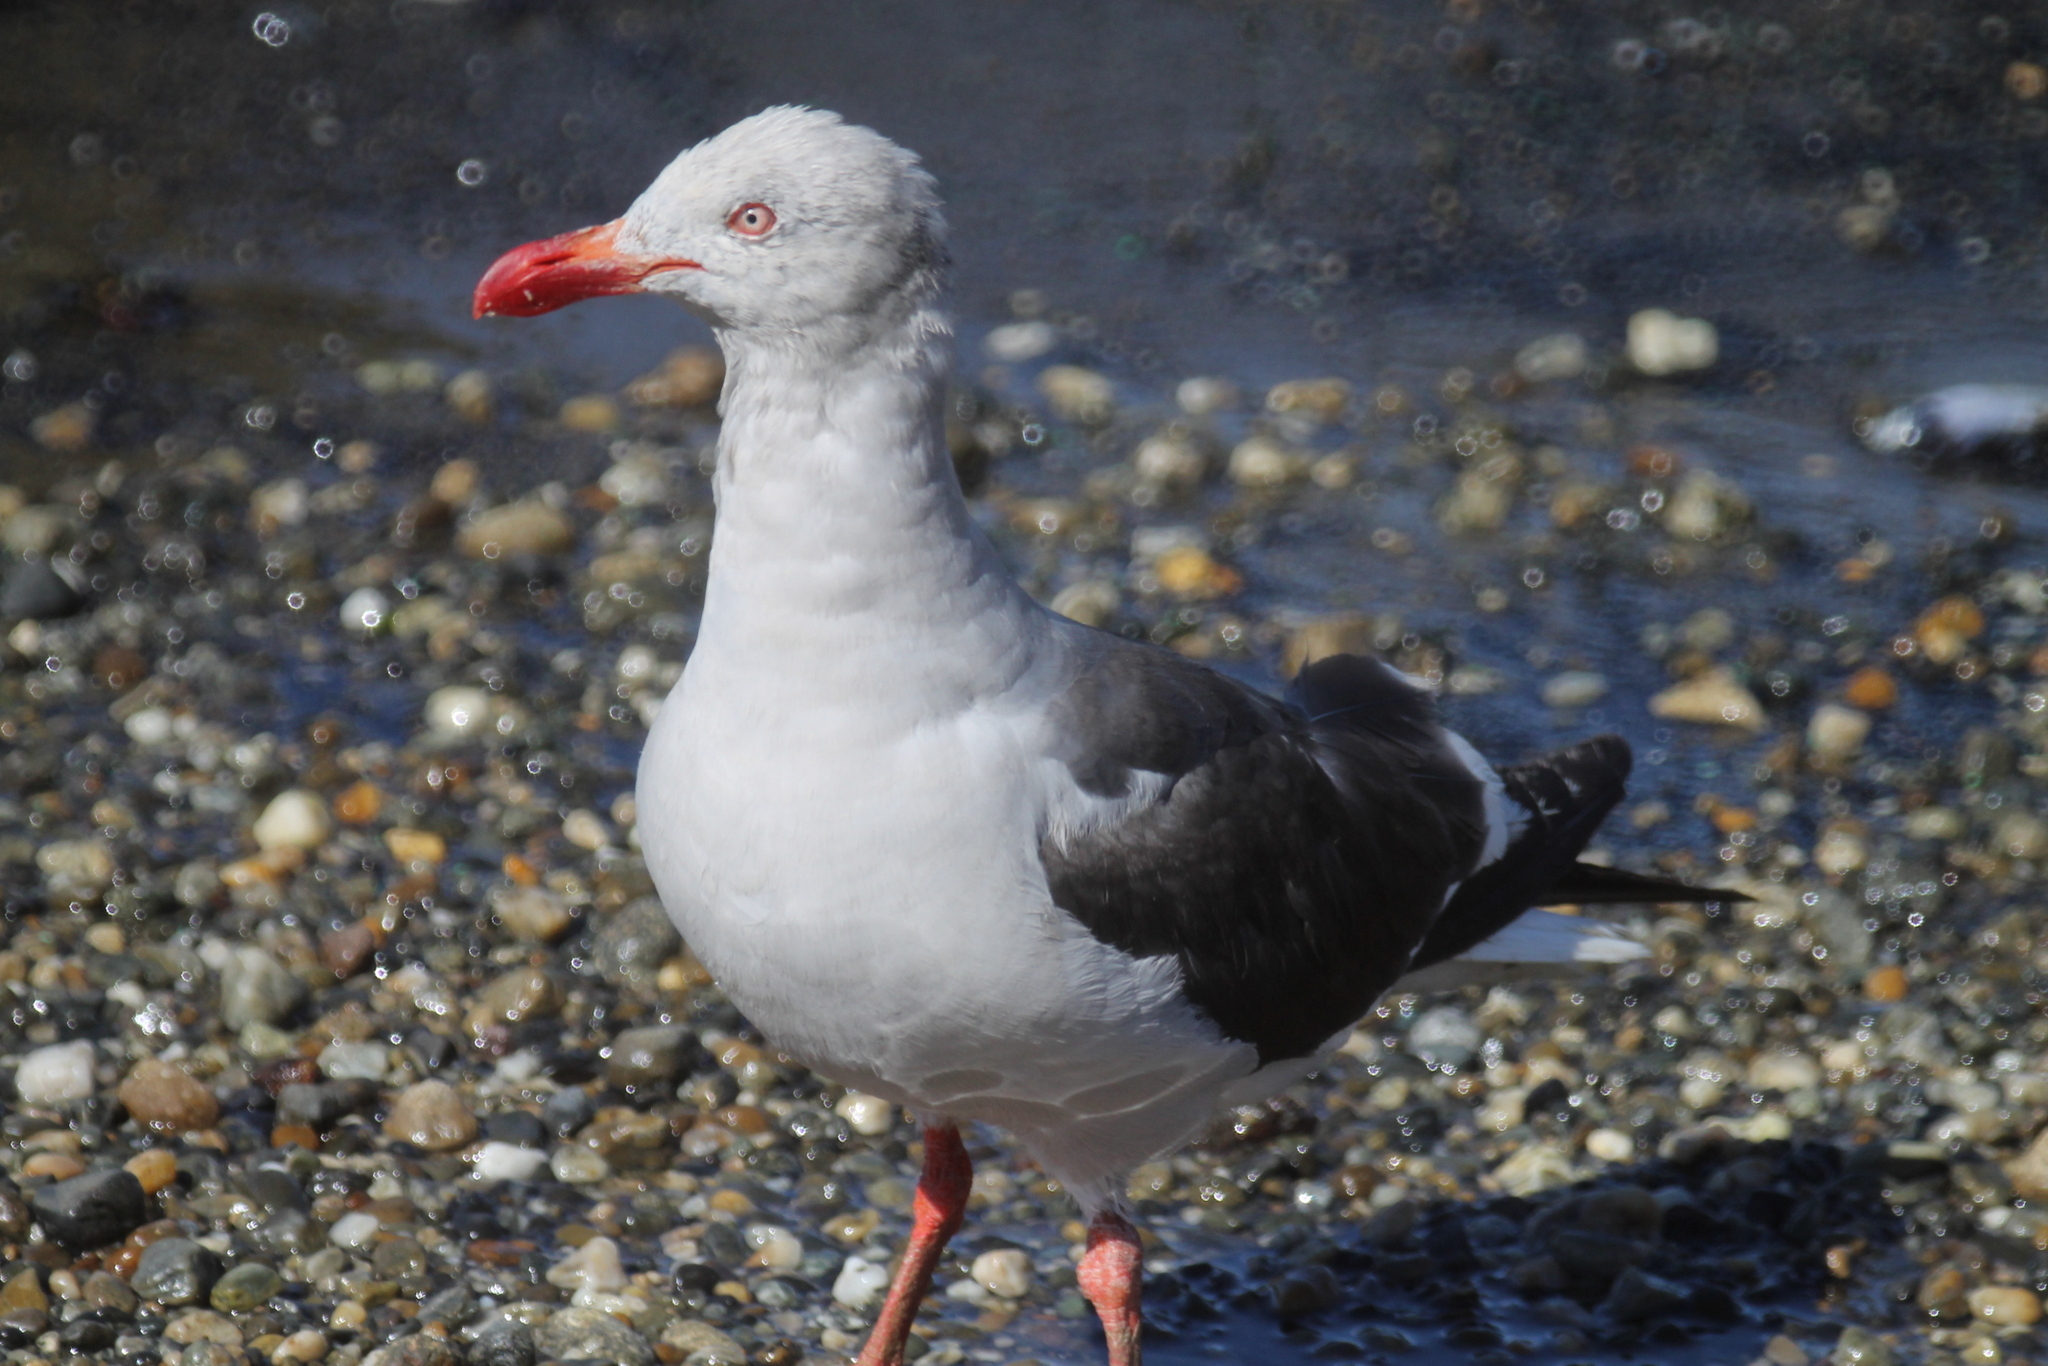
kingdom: Animalia
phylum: Chordata
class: Aves
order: Charadriiformes
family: Laridae
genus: Leucophaeus
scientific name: Leucophaeus scoresbii
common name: Dolphin gull
